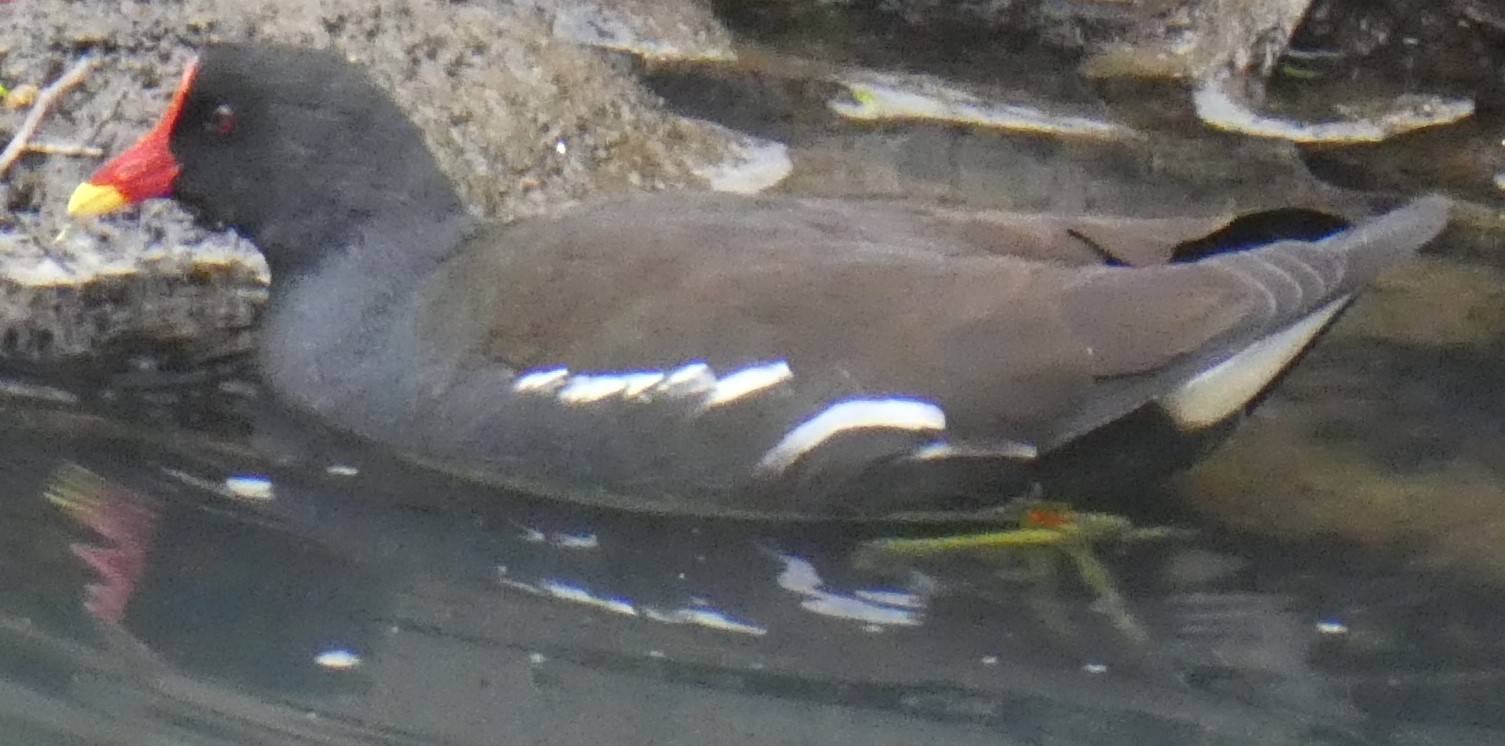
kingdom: Animalia
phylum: Chordata
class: Aves
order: Gruiformes
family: Rallidae
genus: Gallinula
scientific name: Gallinula chloropus
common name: Common moorhen
